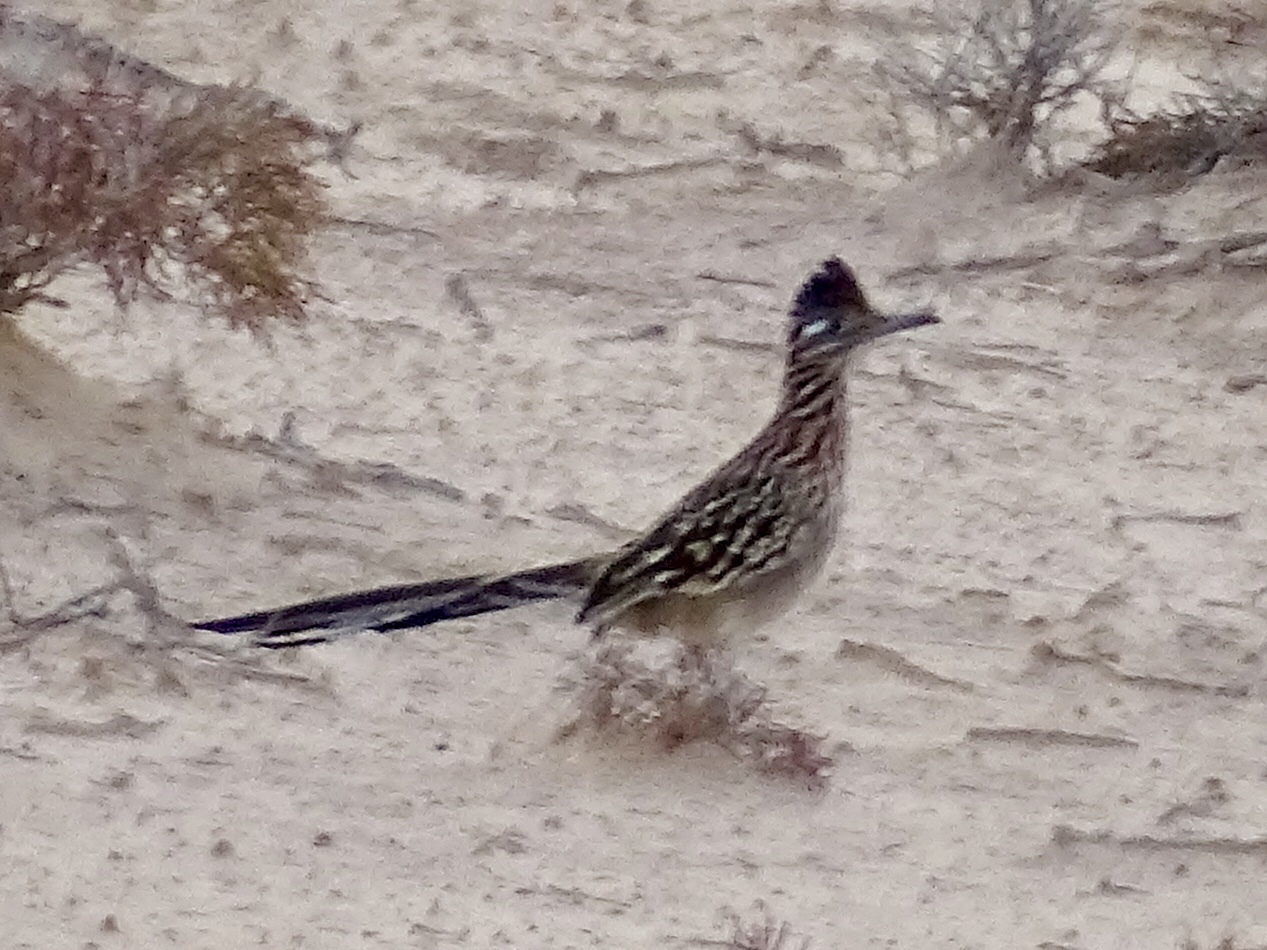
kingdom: Animalia
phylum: Chordata
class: Aves
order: Cuculiformes
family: Cuculidae
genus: Geococcyx
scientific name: Geococcyx californianus
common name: Greater roadrunner
